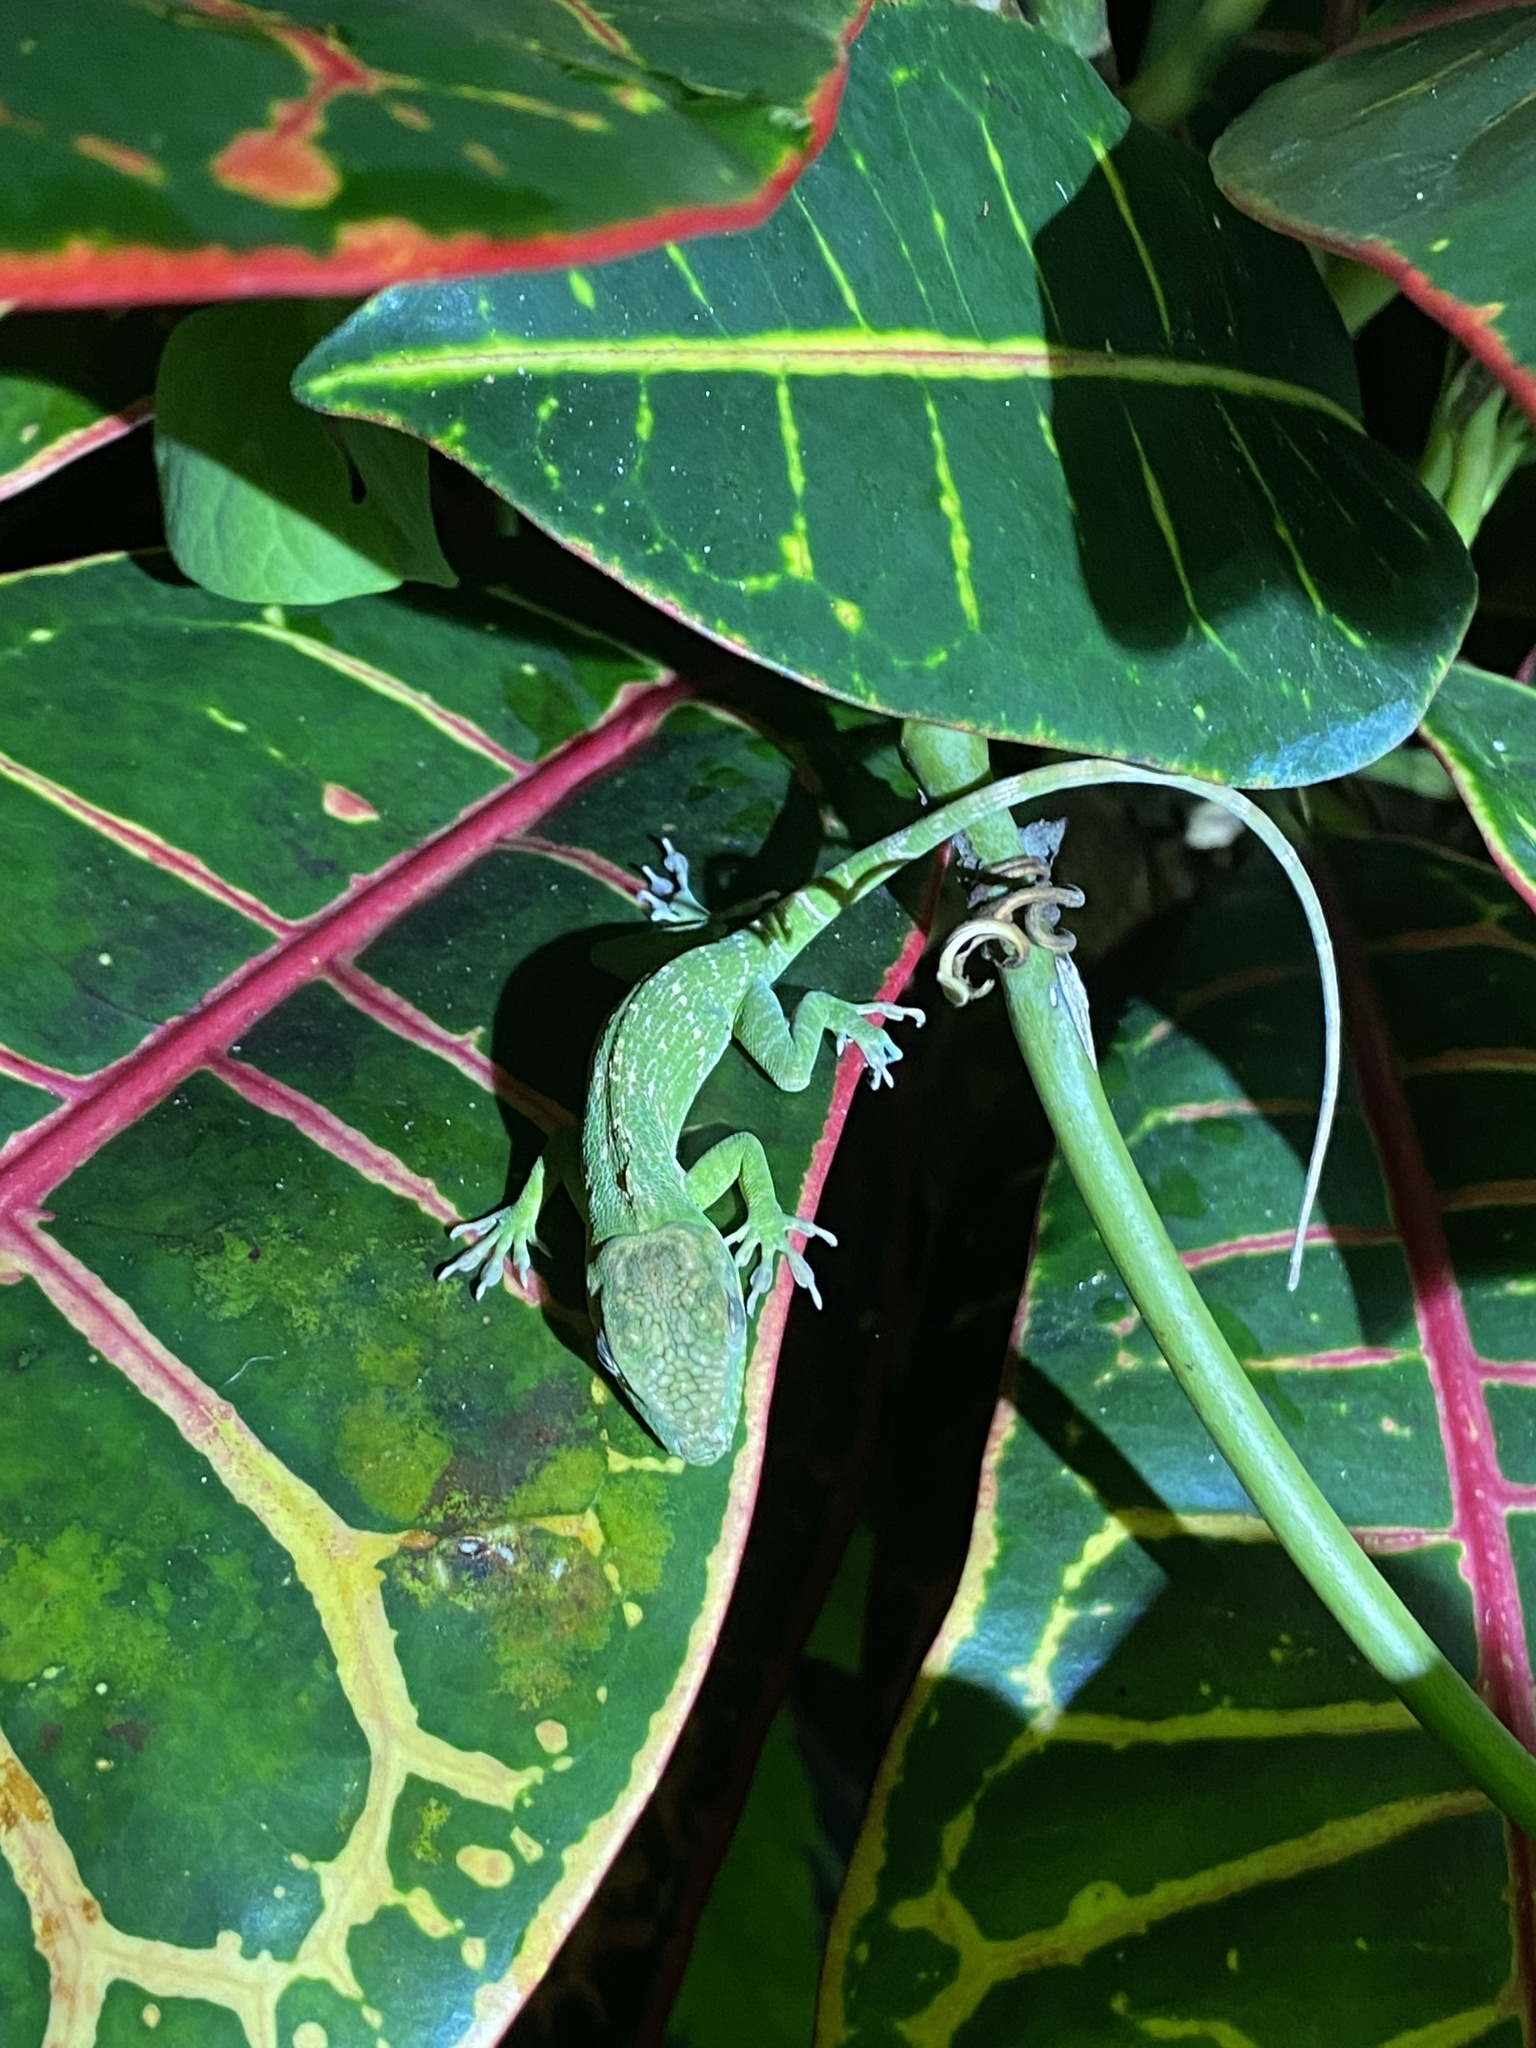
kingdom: Animalia
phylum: Chordata
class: Squamata
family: Dactyloidae
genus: Anolis
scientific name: Anolis equestris
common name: Knight anole
